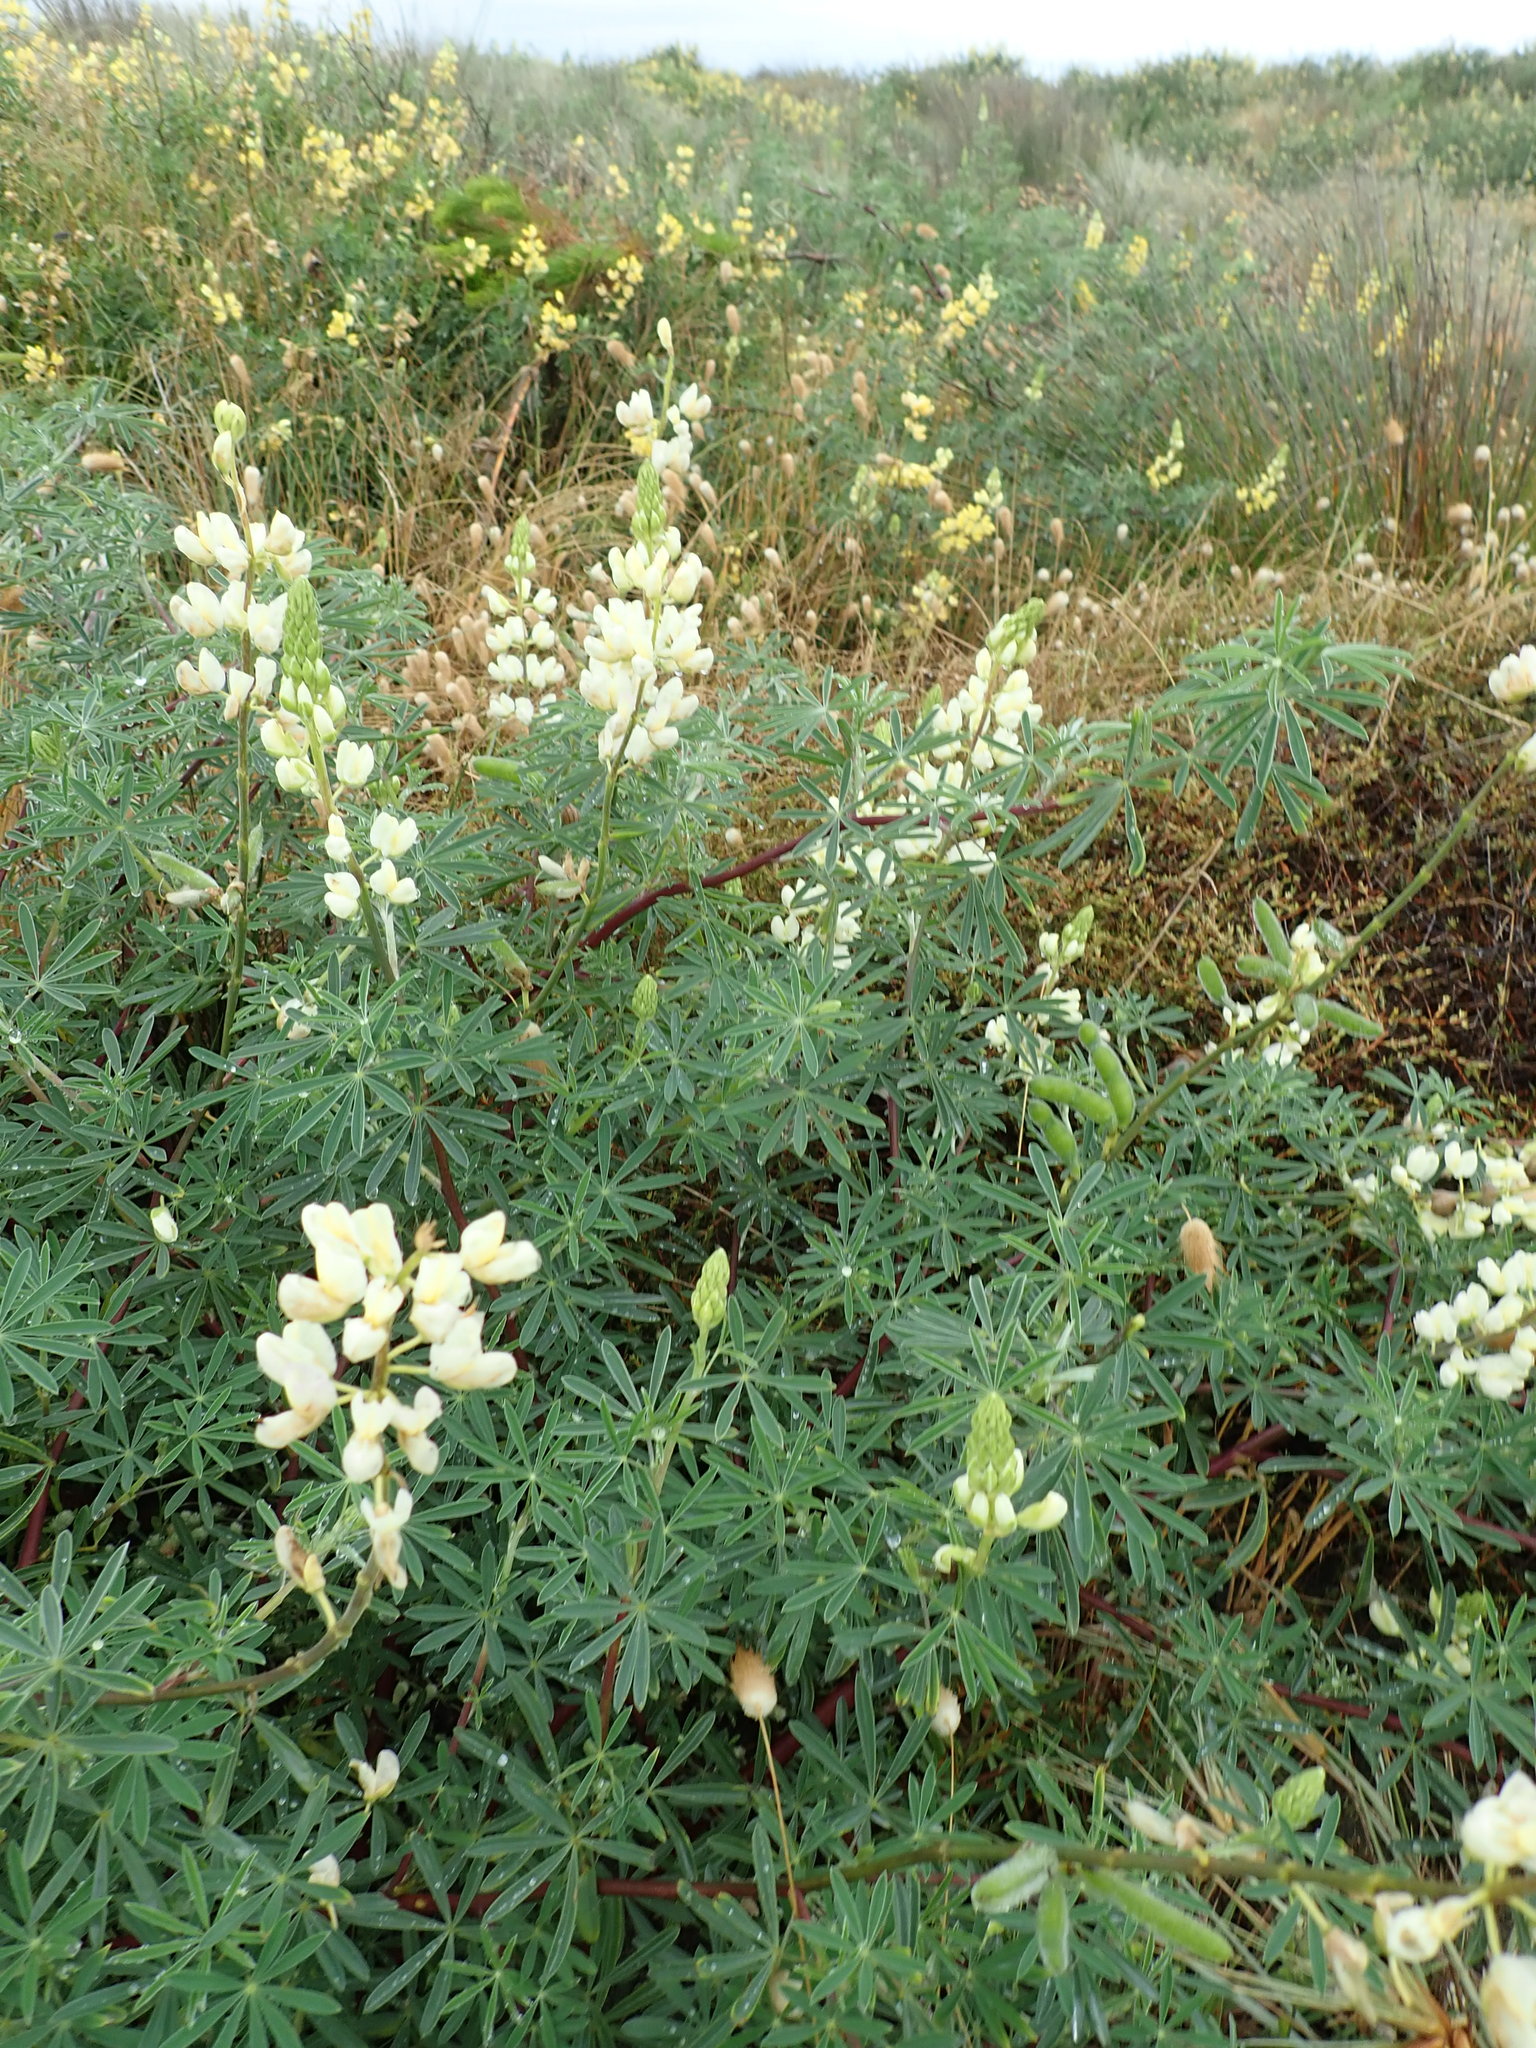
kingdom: Plantae
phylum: Tracheophyta
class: Magnoliopsida
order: Fabales
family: Fabaceae
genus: Lupinus
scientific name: Lupinus arboreus
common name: Yellow bush lupine
